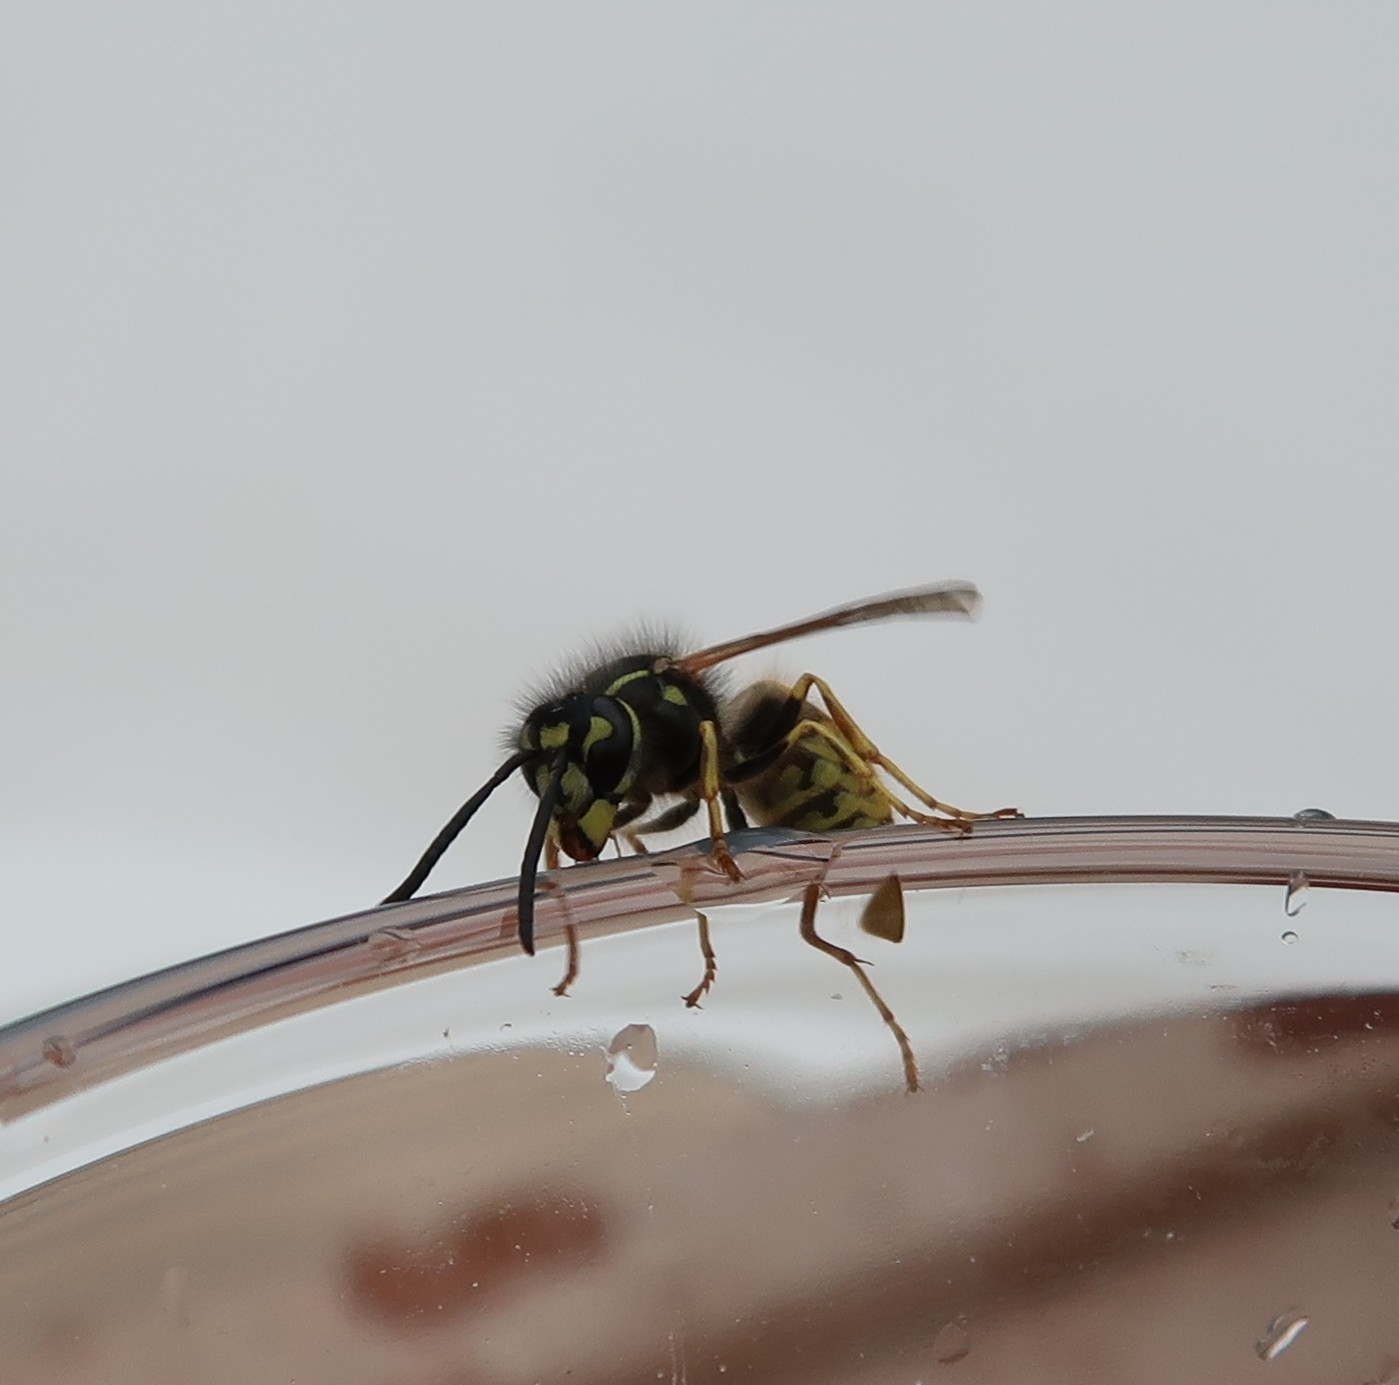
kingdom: Animalia
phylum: Arthropoda
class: Insecta
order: Hymenoptera
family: Vespidae
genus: Vespula
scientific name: Vespula vulgaris
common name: Common wasp
